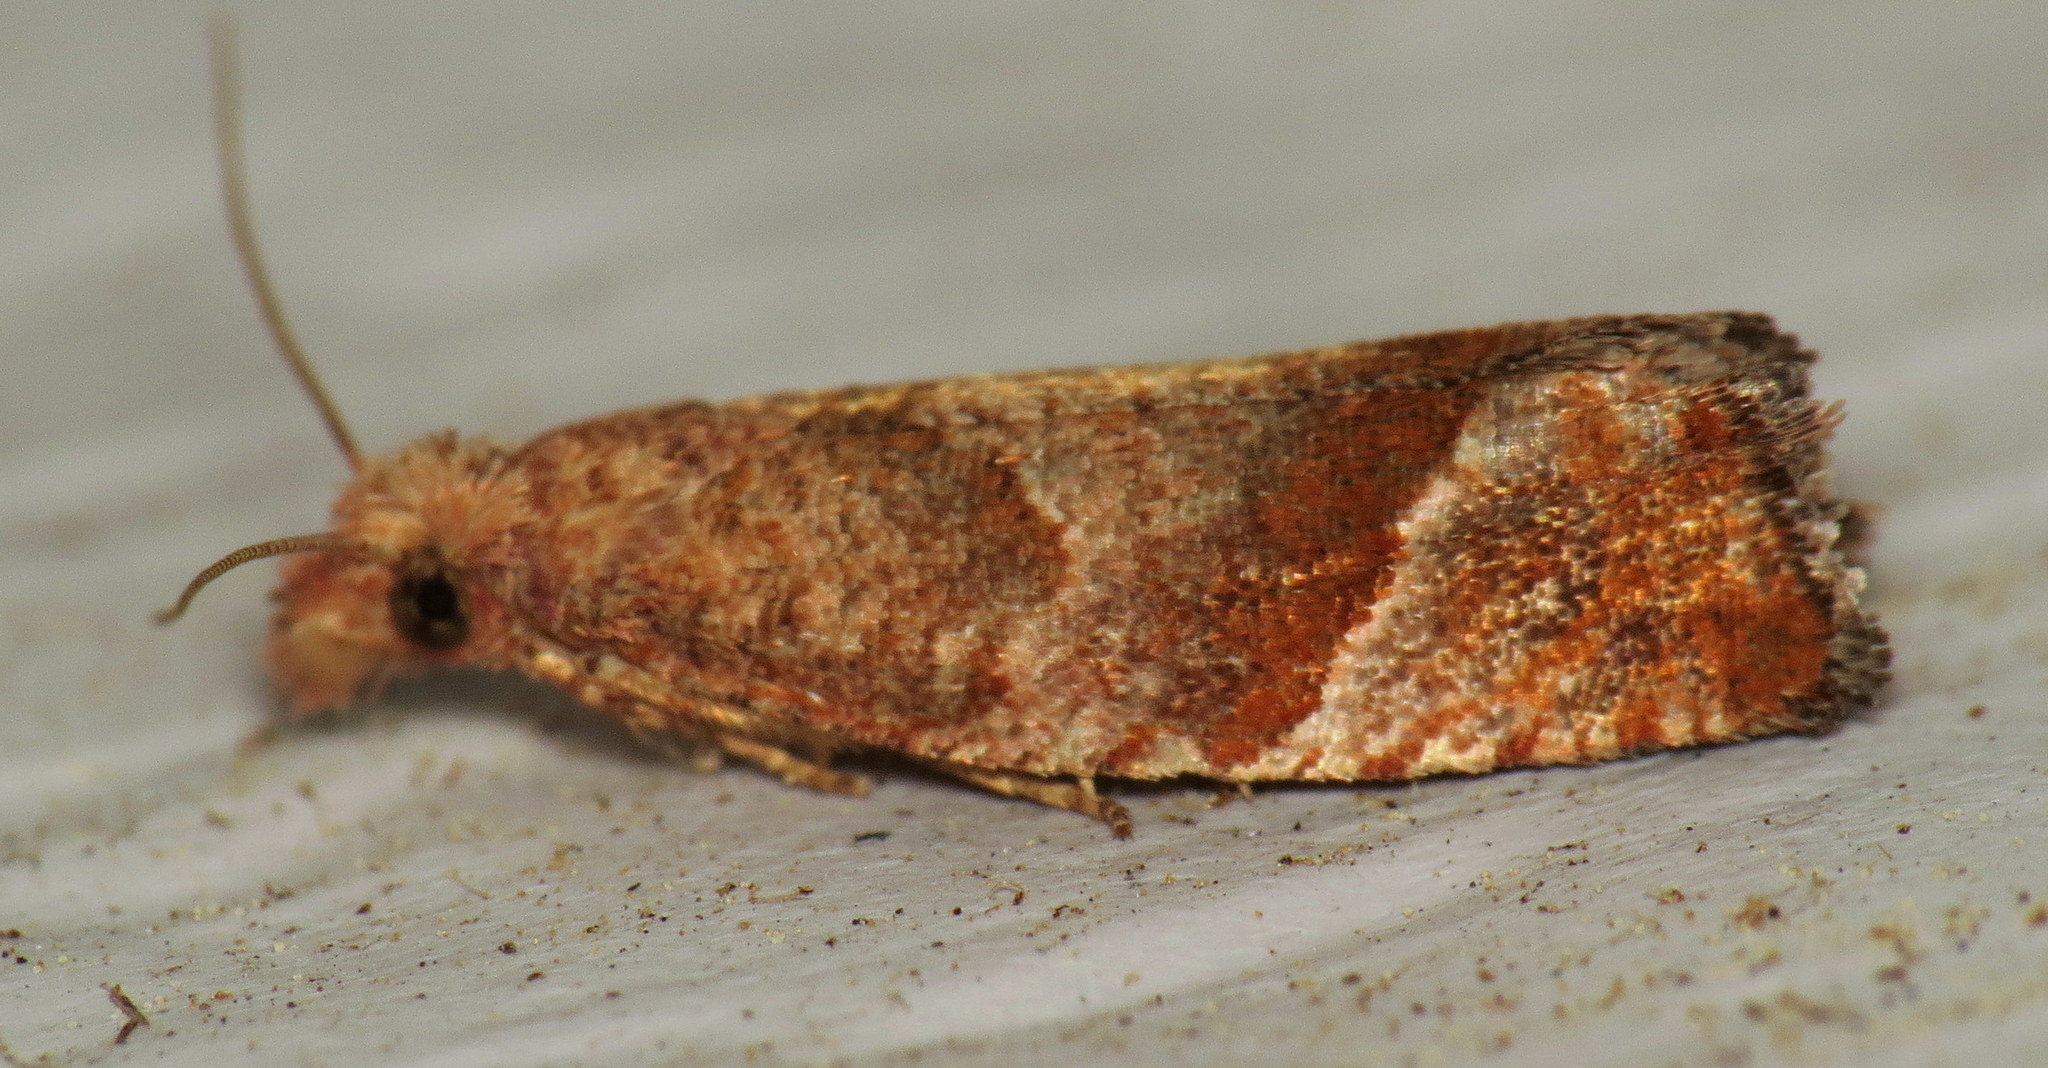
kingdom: Animalia
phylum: Arthropoda
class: Insecta
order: Lepidoptera
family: Tortricidae
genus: Pelochrista
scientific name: Pelochrista derelicta
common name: Derelict pelochrista moth
